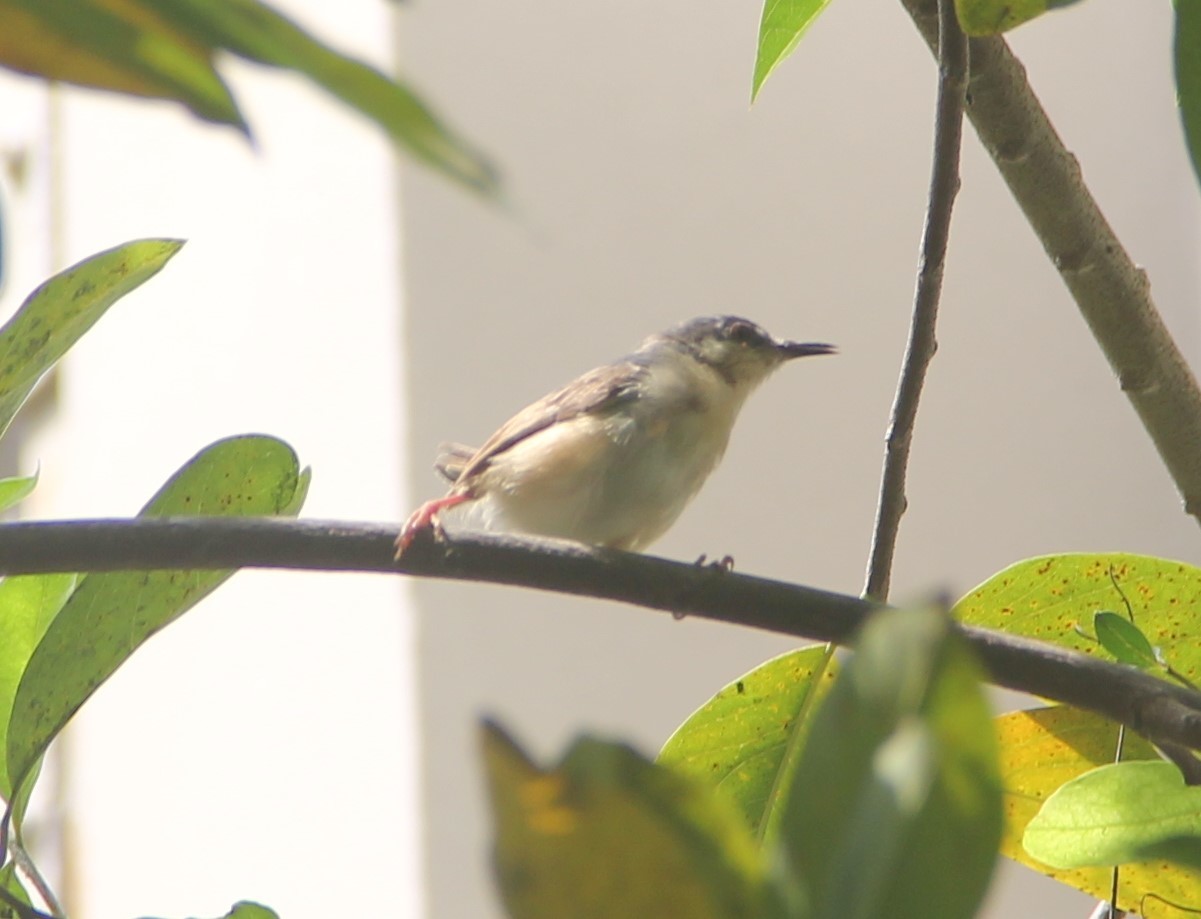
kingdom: Animalia
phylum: Chordata
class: Aves
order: Passeriformes
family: Cisticolidae
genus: Prinia
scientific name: Prinia socialis
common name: Ashy prinia
